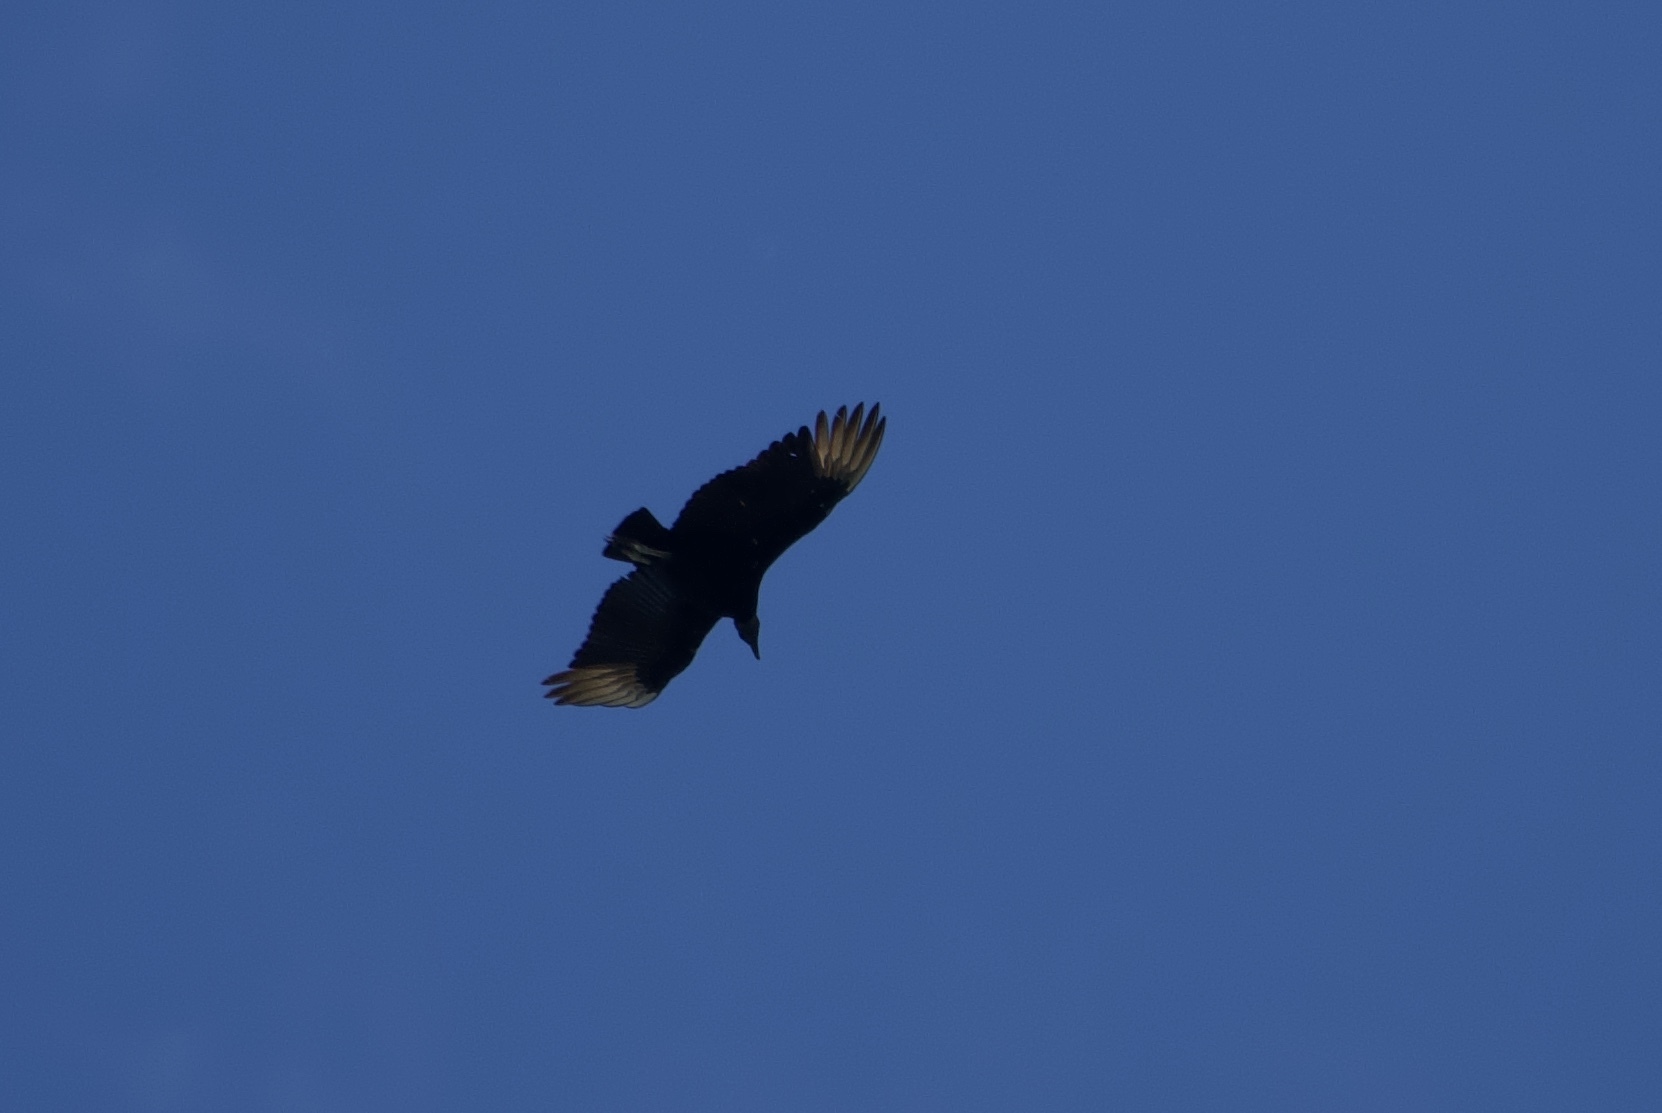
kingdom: Animalia
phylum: Chordata
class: Aves
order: Accipitriformes
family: Cathartidae
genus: Coragyps
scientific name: Coragyps atratus
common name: Black vulture
